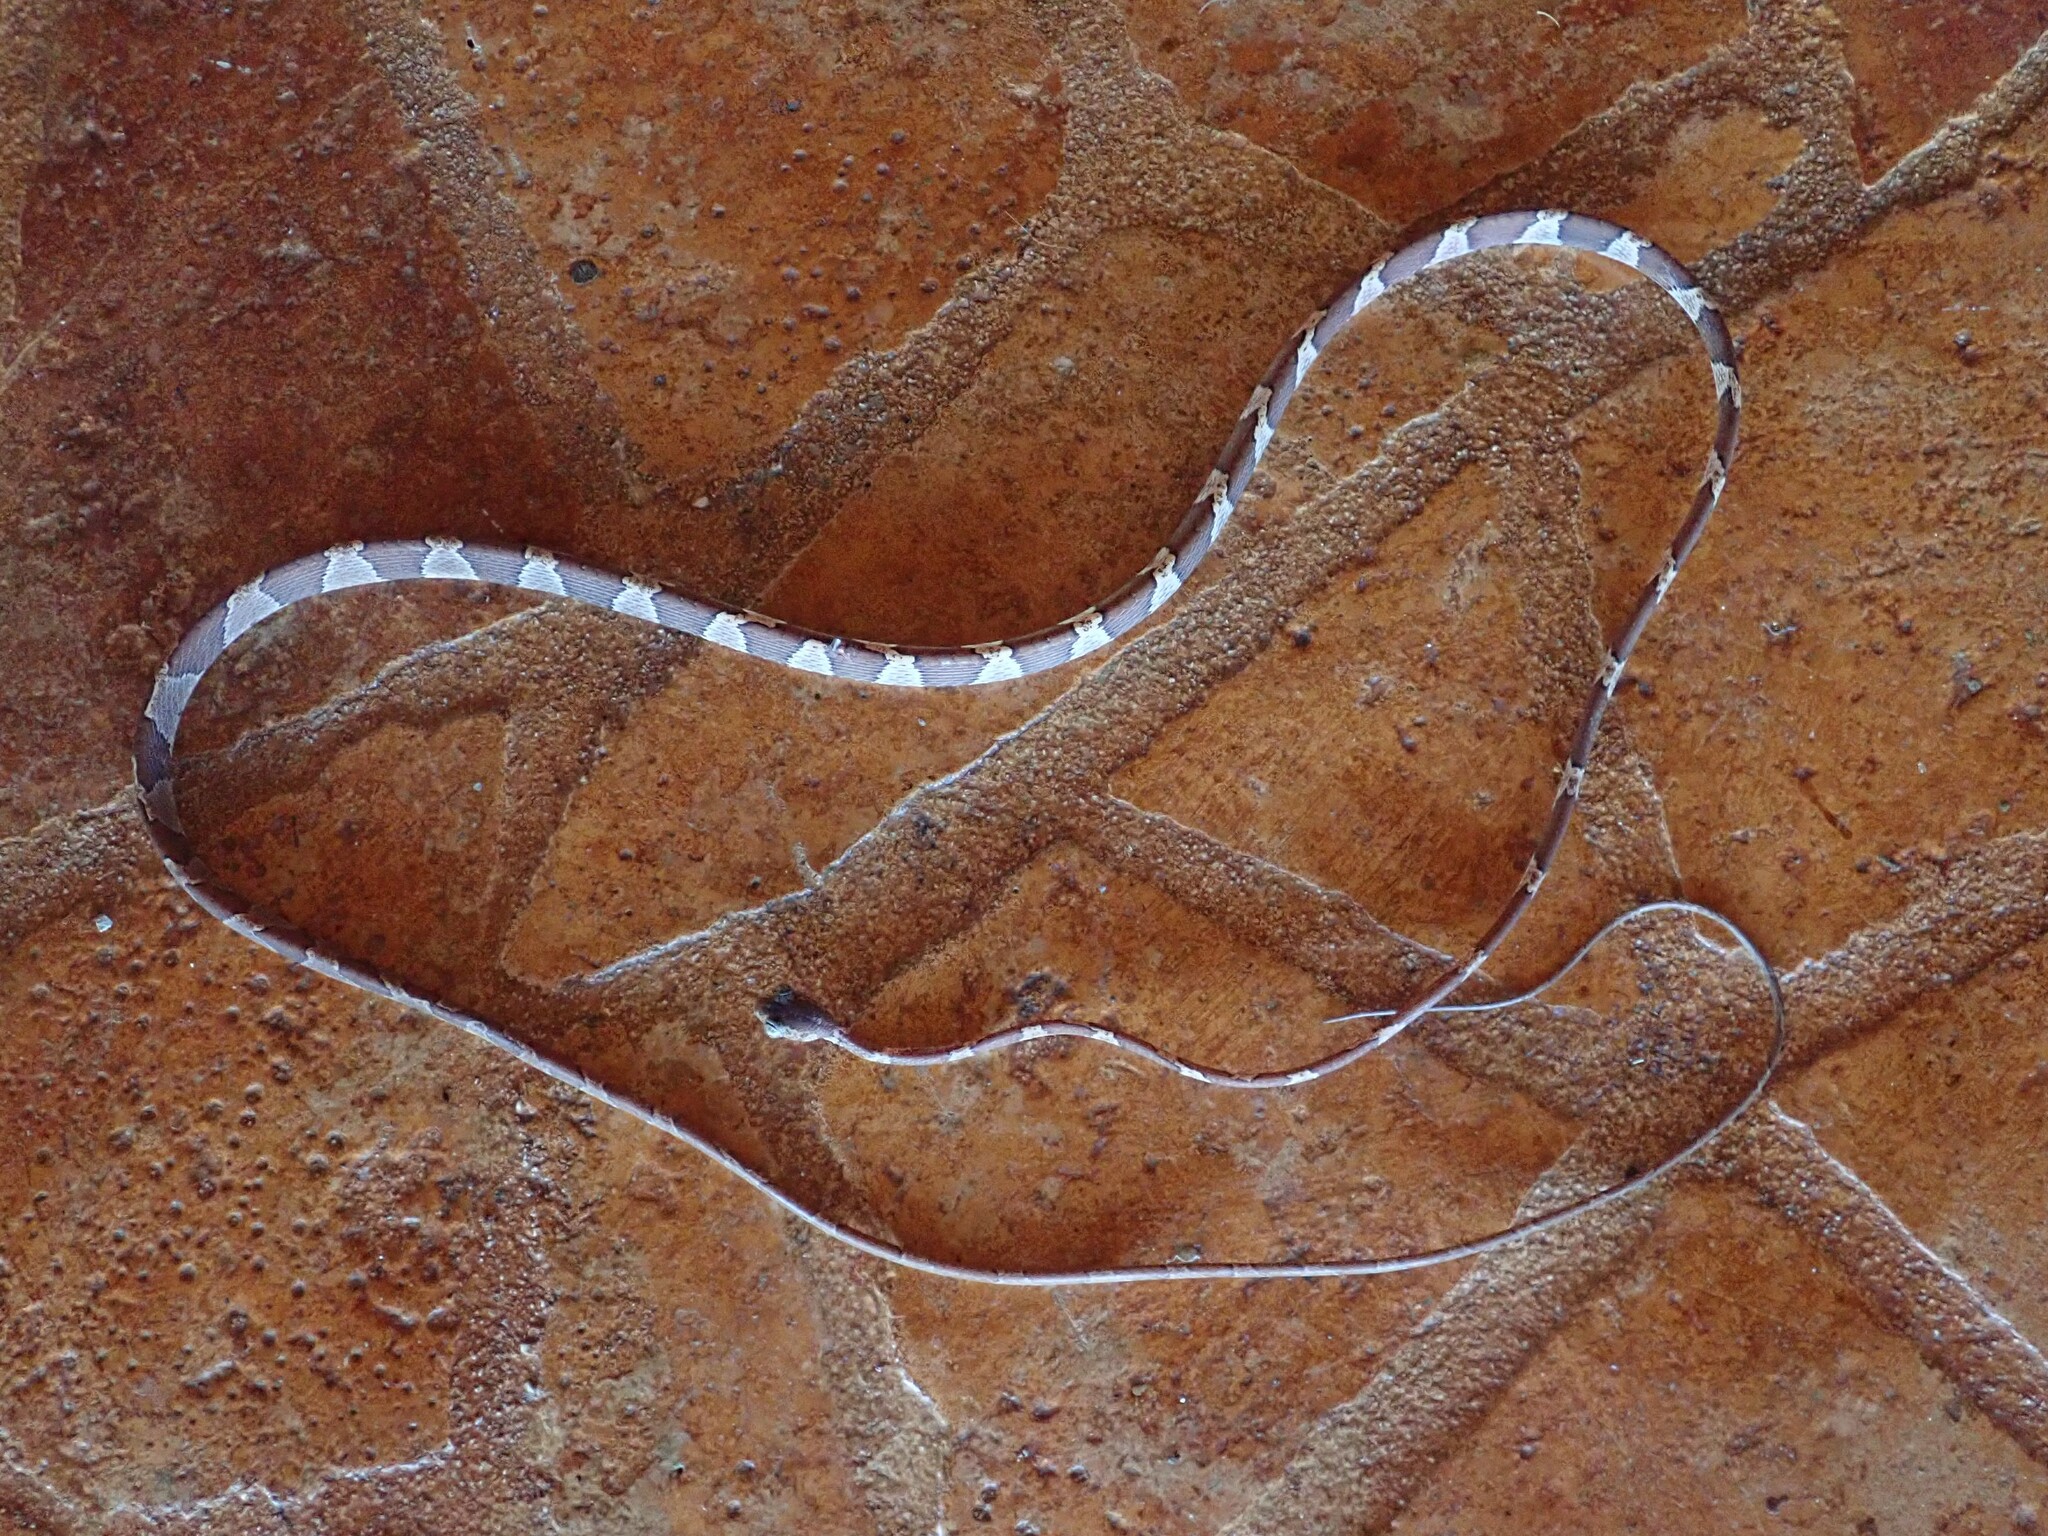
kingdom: Animalia
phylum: Chordata
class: Squamata
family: Colubridae
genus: Imantodes
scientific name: Imantodes cenchoa
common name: Blunthead tree snake
